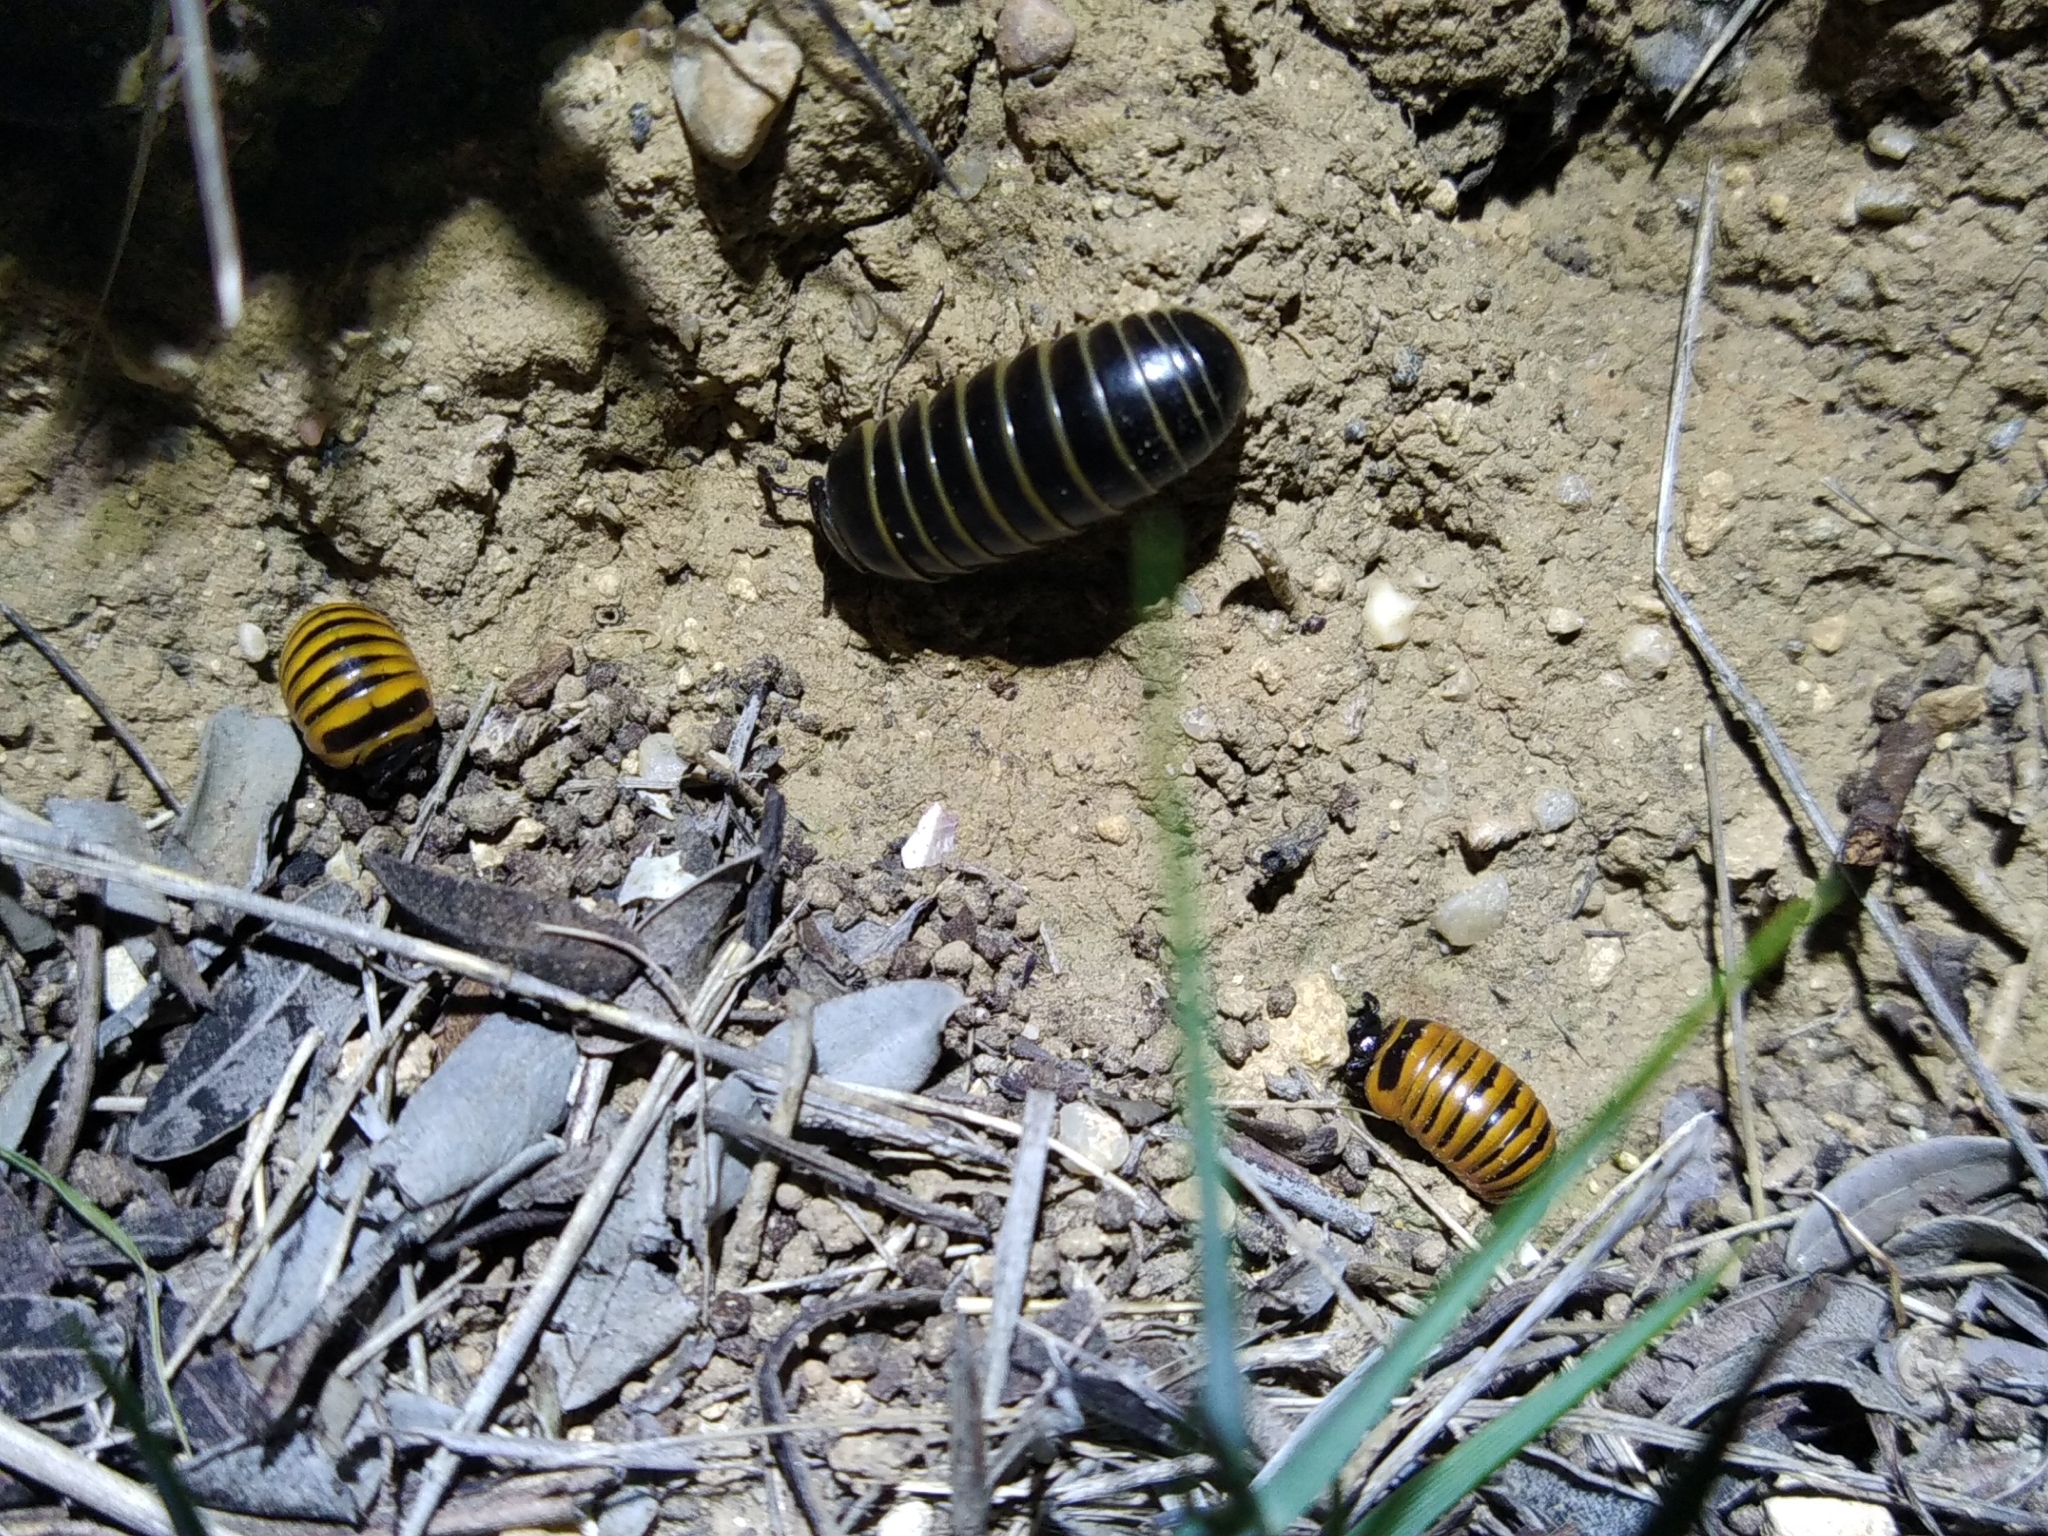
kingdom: Animalia
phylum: Arthropoda
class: Diplopoda
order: Glomerida
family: Glomeridae
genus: Glomeris
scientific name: Glomeris marginata
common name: Bordered pill millipede
